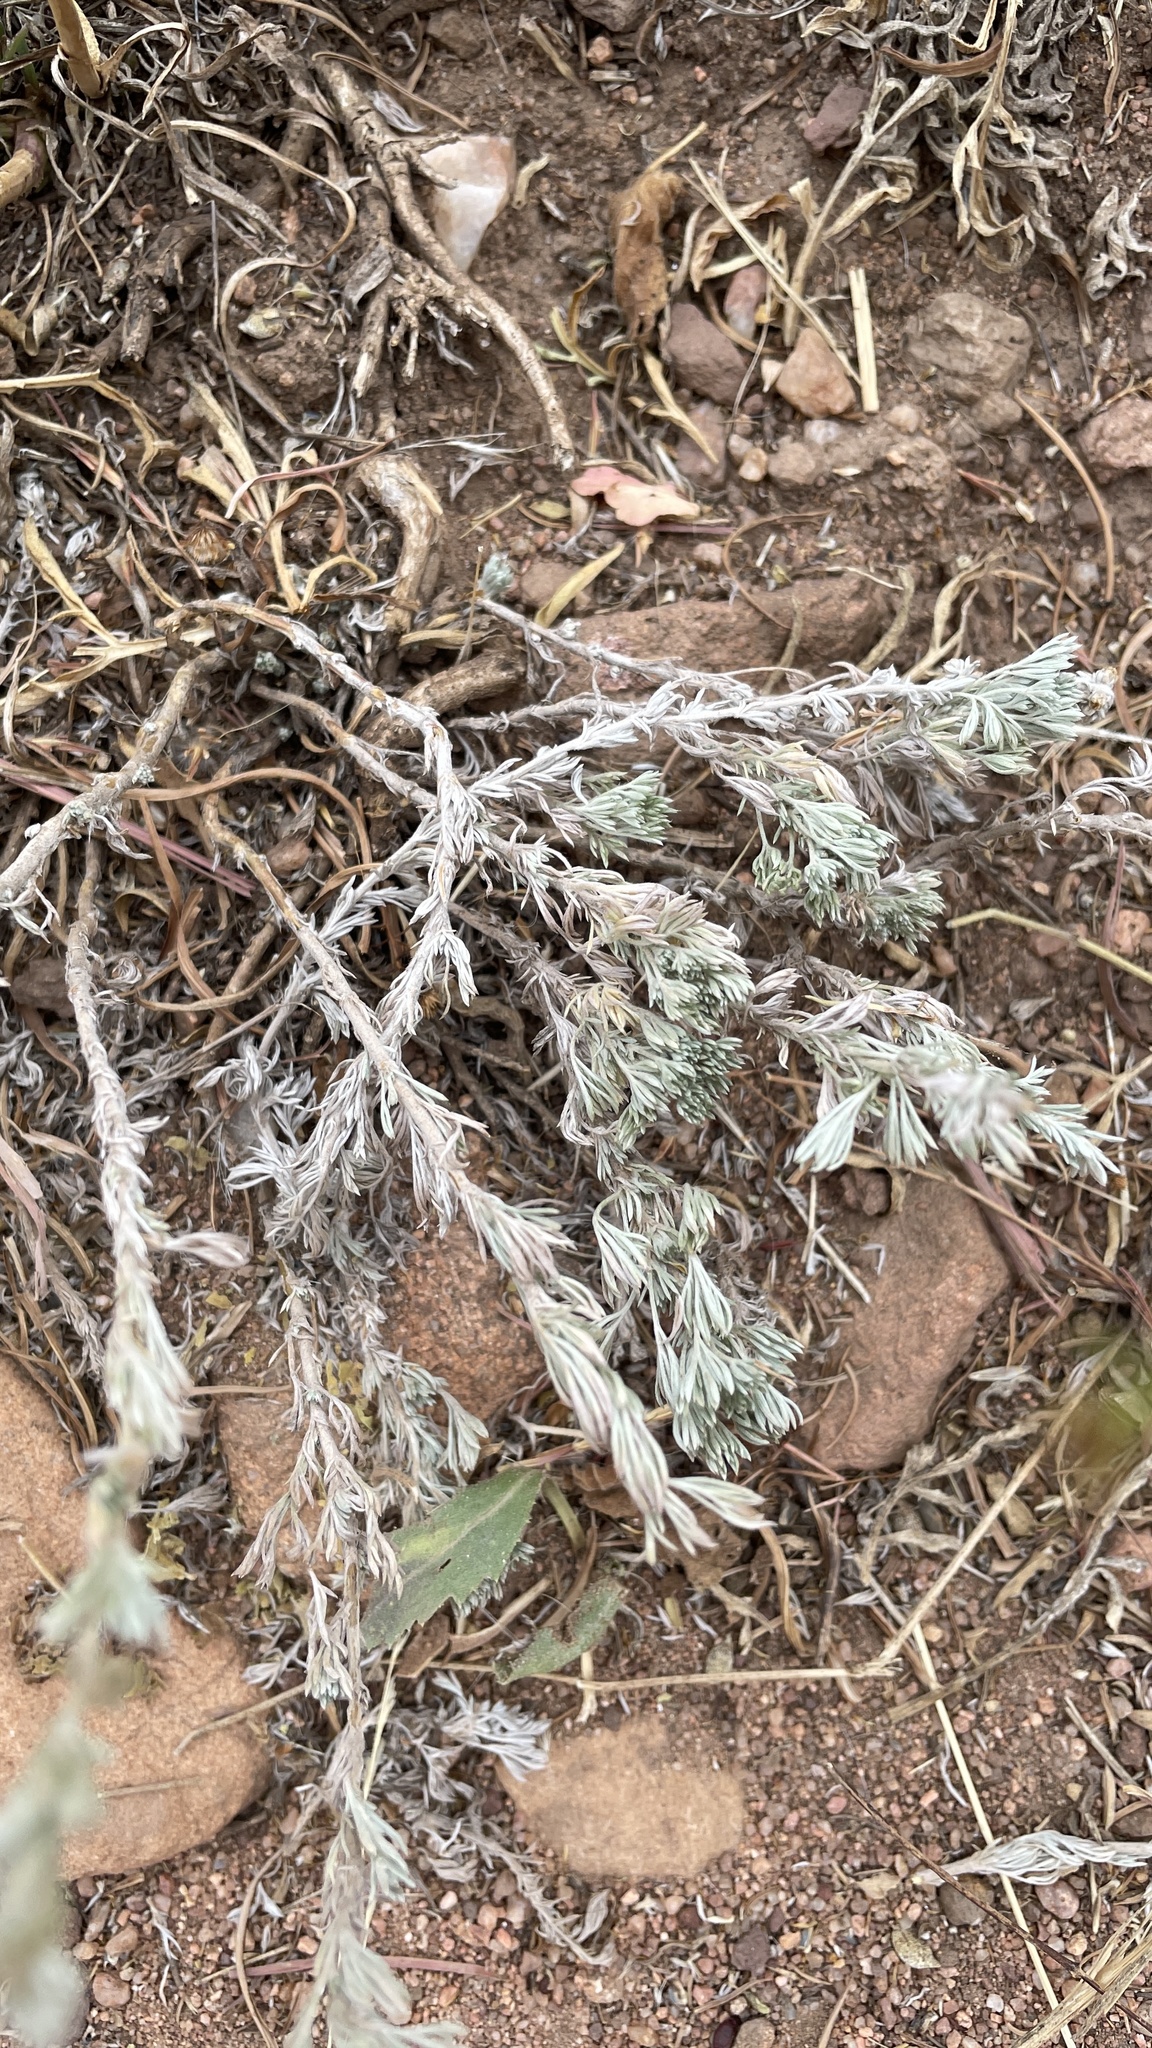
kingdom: Plantae
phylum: Tracheophyta
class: Magnoliopsida
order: Asterales
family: Asteraceae
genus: Artemisia
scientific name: Artemisia frigida
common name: Prairie sagewort
